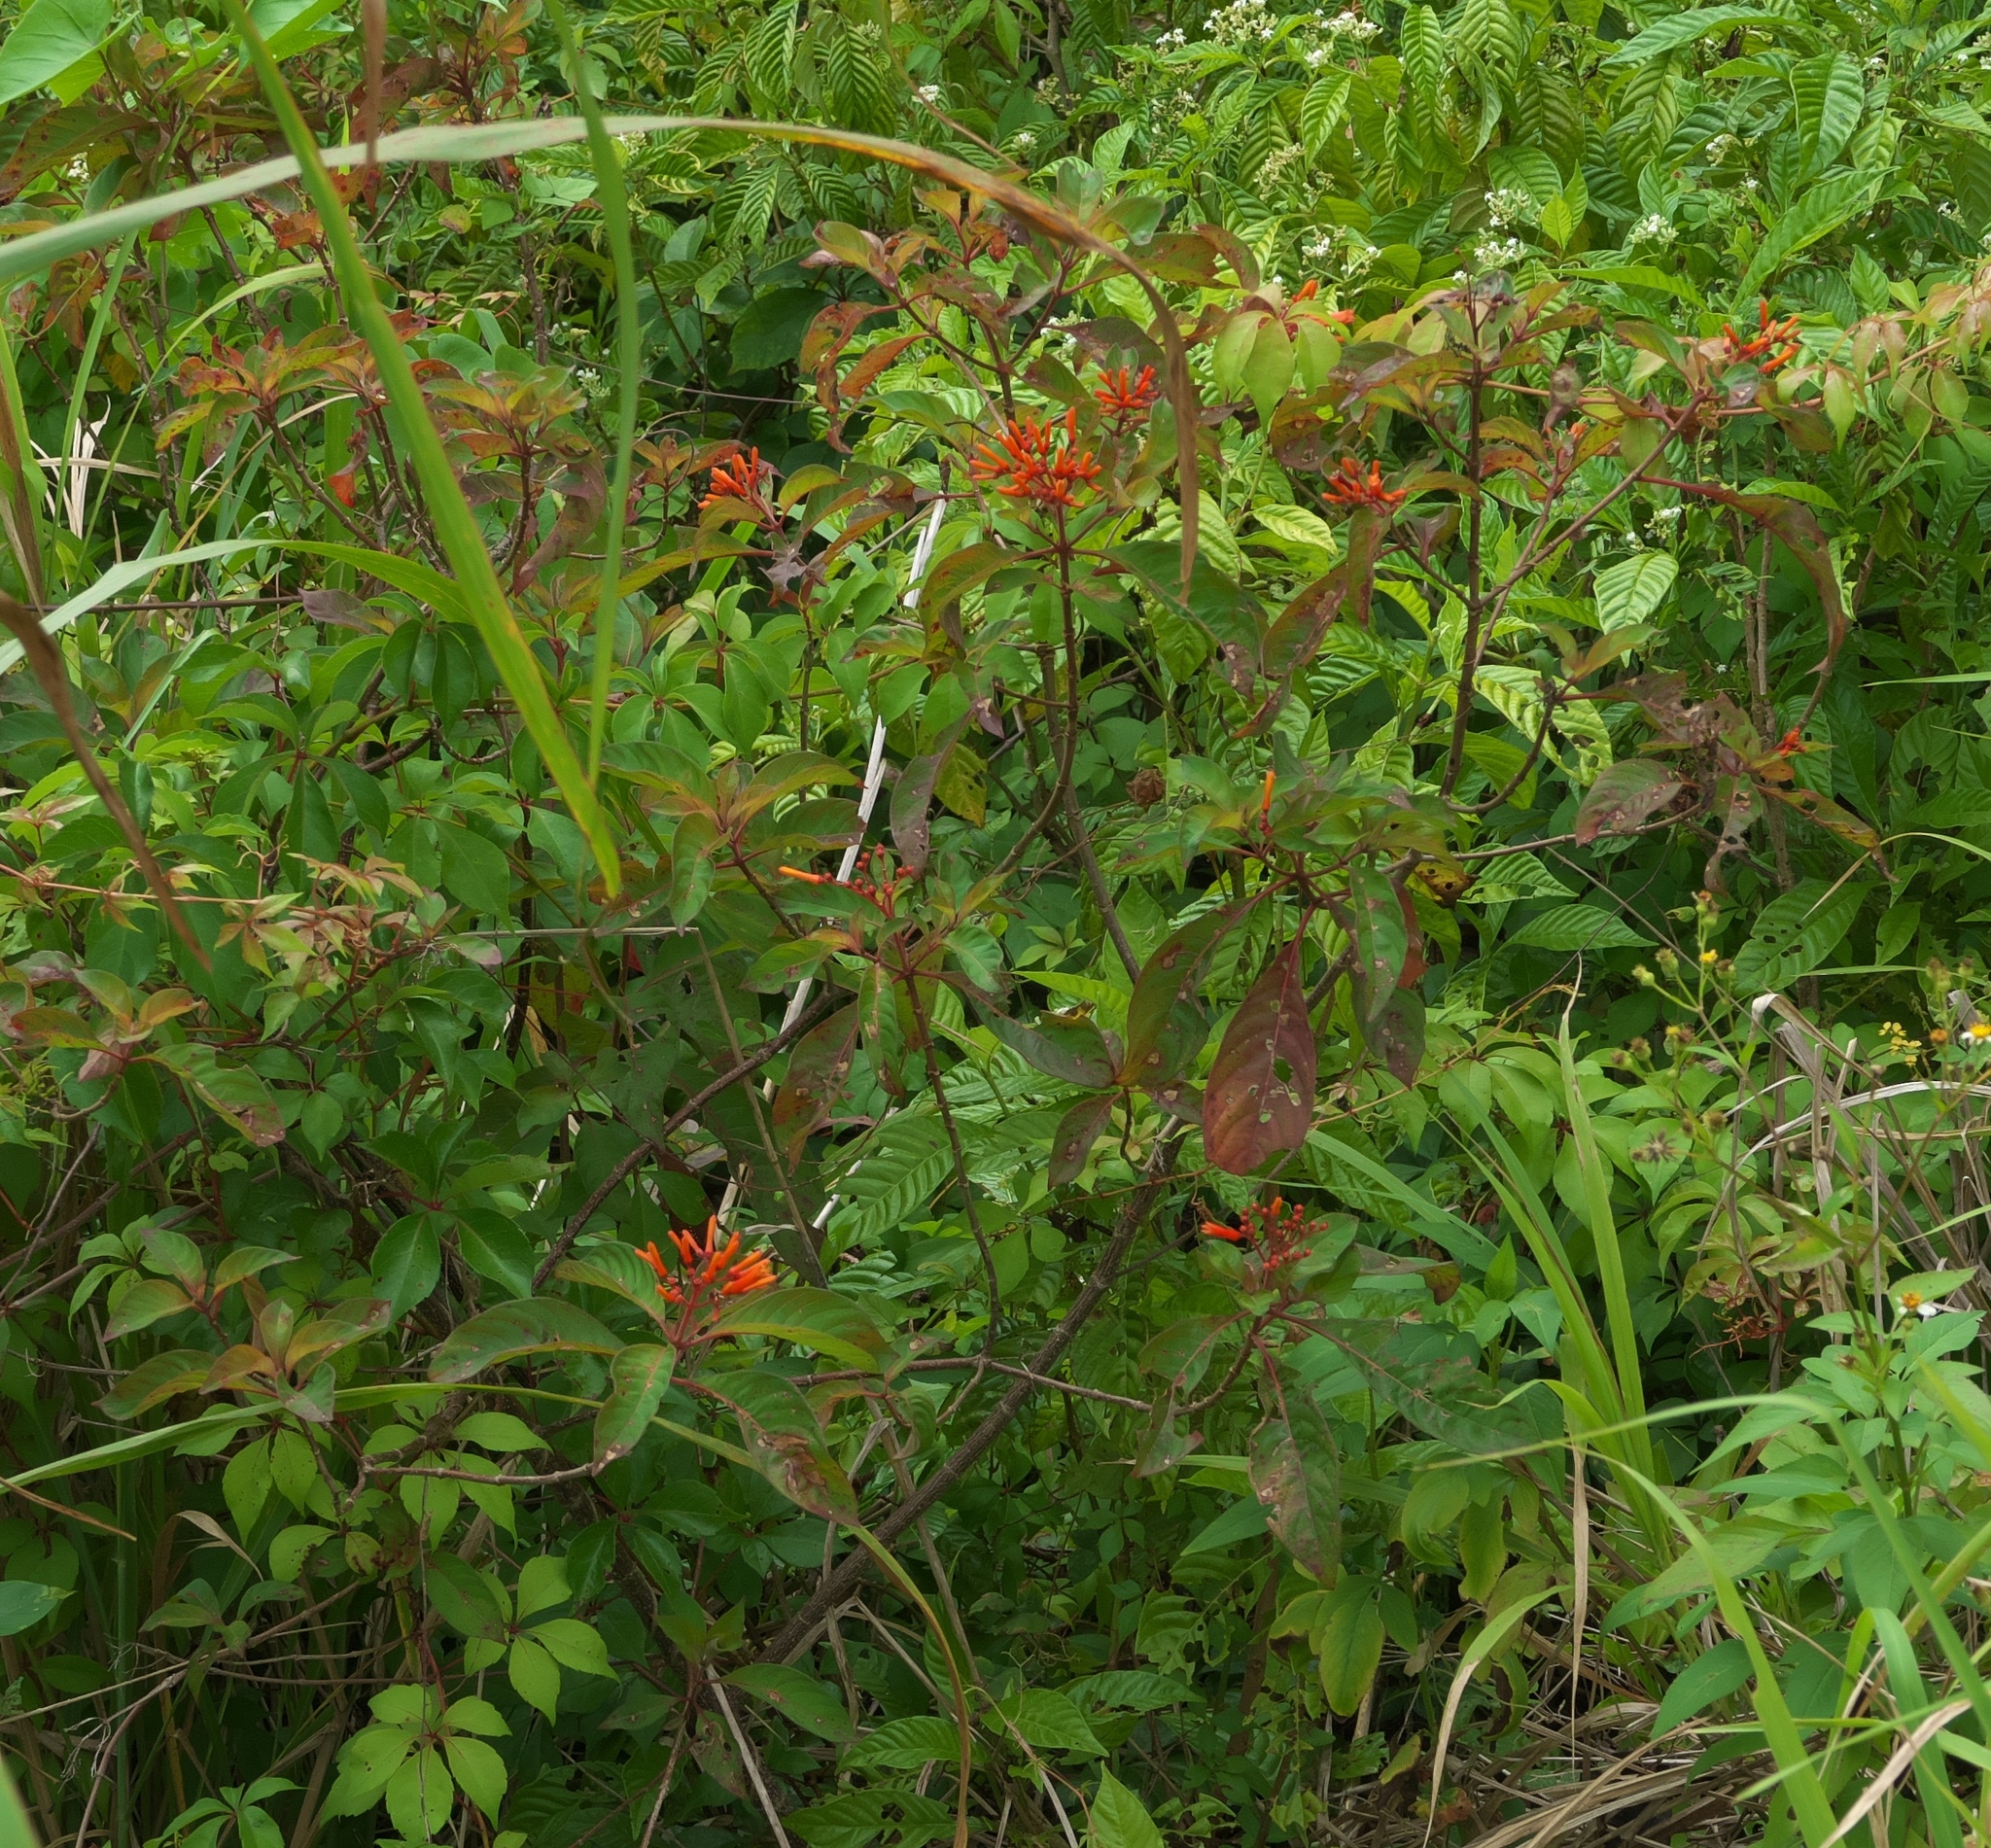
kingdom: Plantae
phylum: Tracheophyta
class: Magnoliopsida
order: Gentianales
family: Rubiaceae
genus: Hamelia
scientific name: Hamelia patens
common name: Redhead
